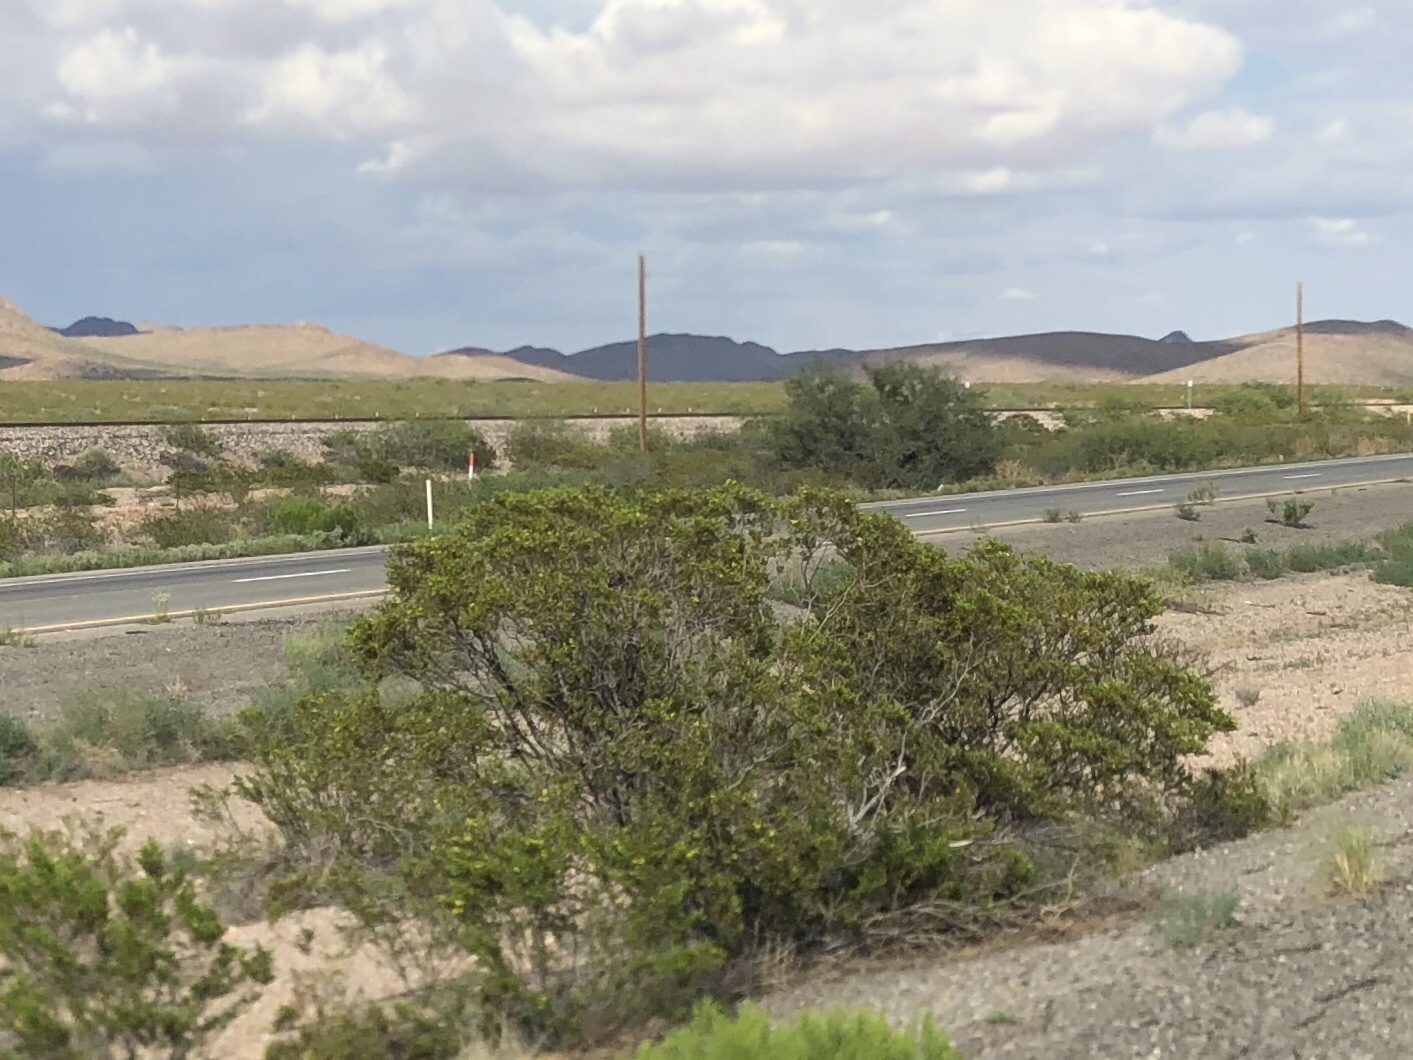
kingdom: Plantae
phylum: Tracheophyta
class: Magnoliopsida
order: Zygophyllales
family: Zygophyllaceae
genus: Larrea
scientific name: Larrea tridentata
